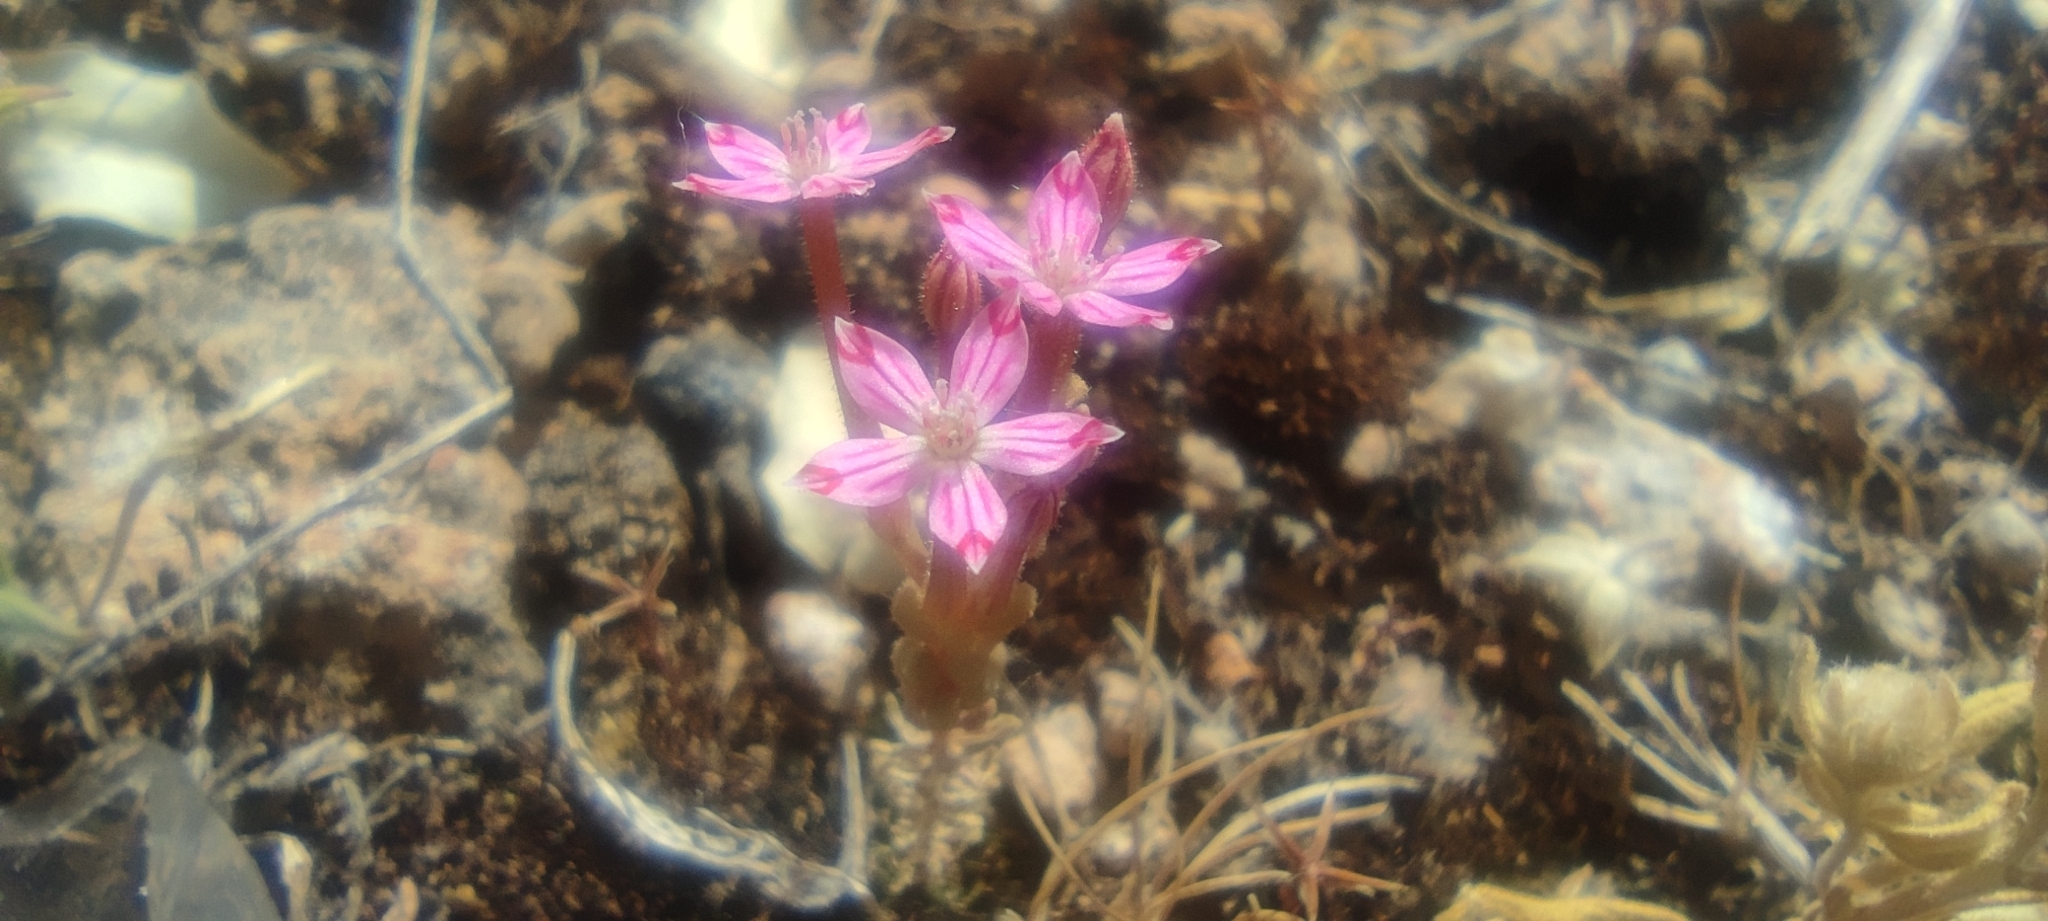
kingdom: Plantae
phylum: Tracheophyta
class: Magnoliopsida
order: Saxifragales
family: Crassulaceae
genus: Pistorinia
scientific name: Pistorinia hispanica
